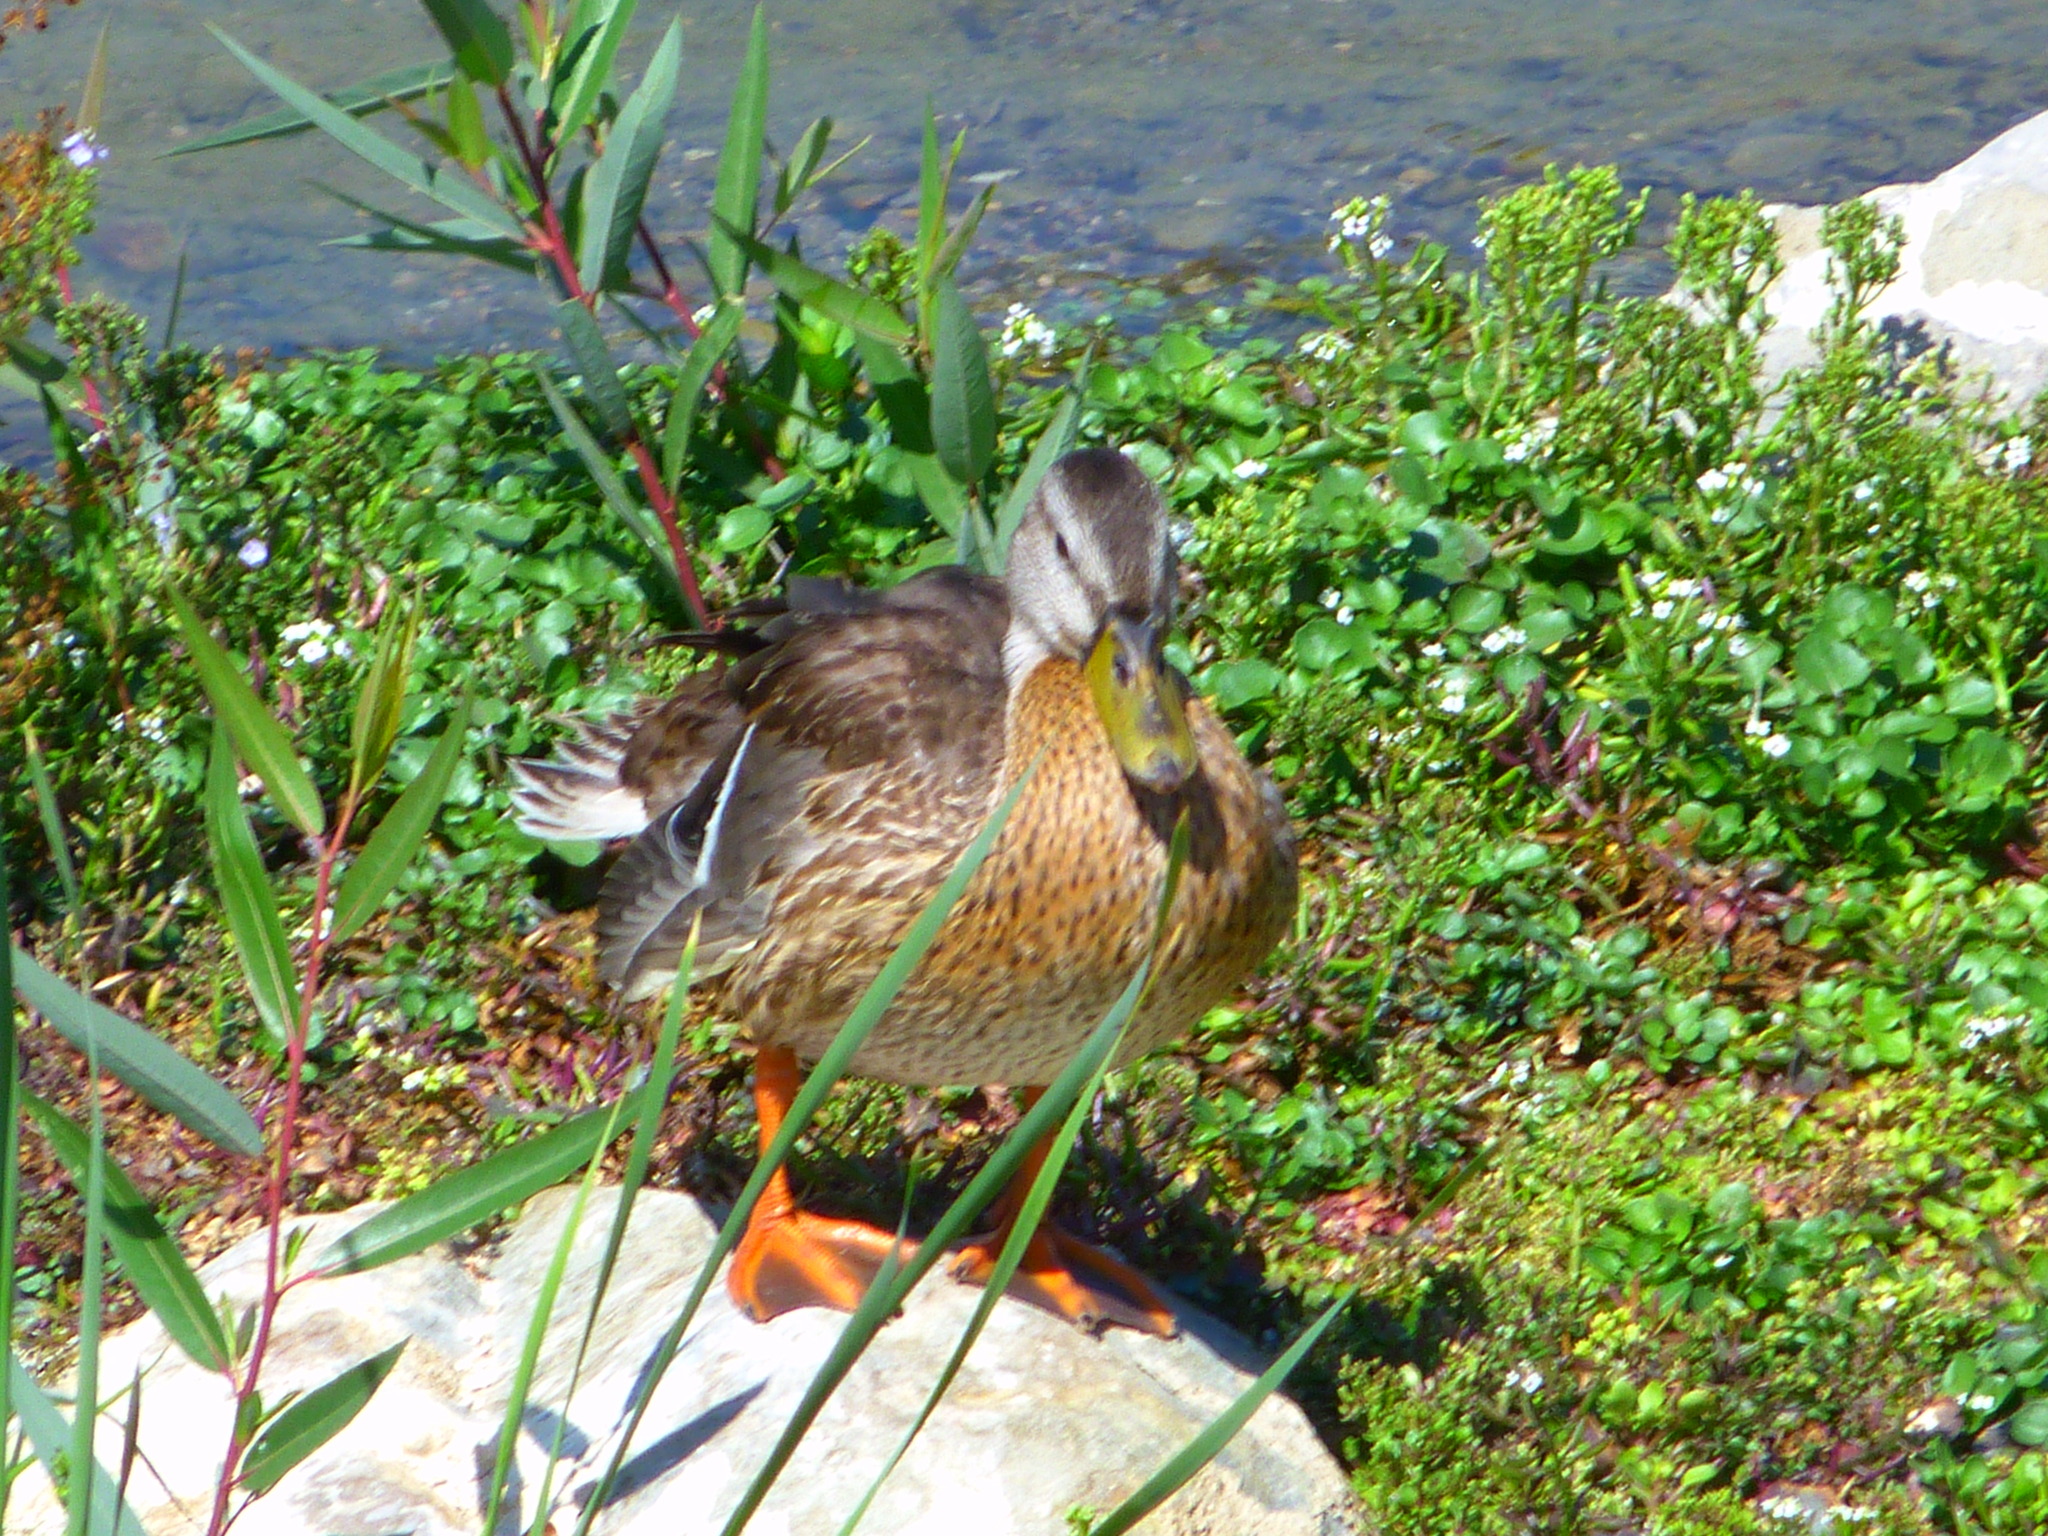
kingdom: Animalia
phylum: Chordata
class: Aves
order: Anseriformes
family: Anatidae
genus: Anas
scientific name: Anas platyrhynchos
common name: Mallard
